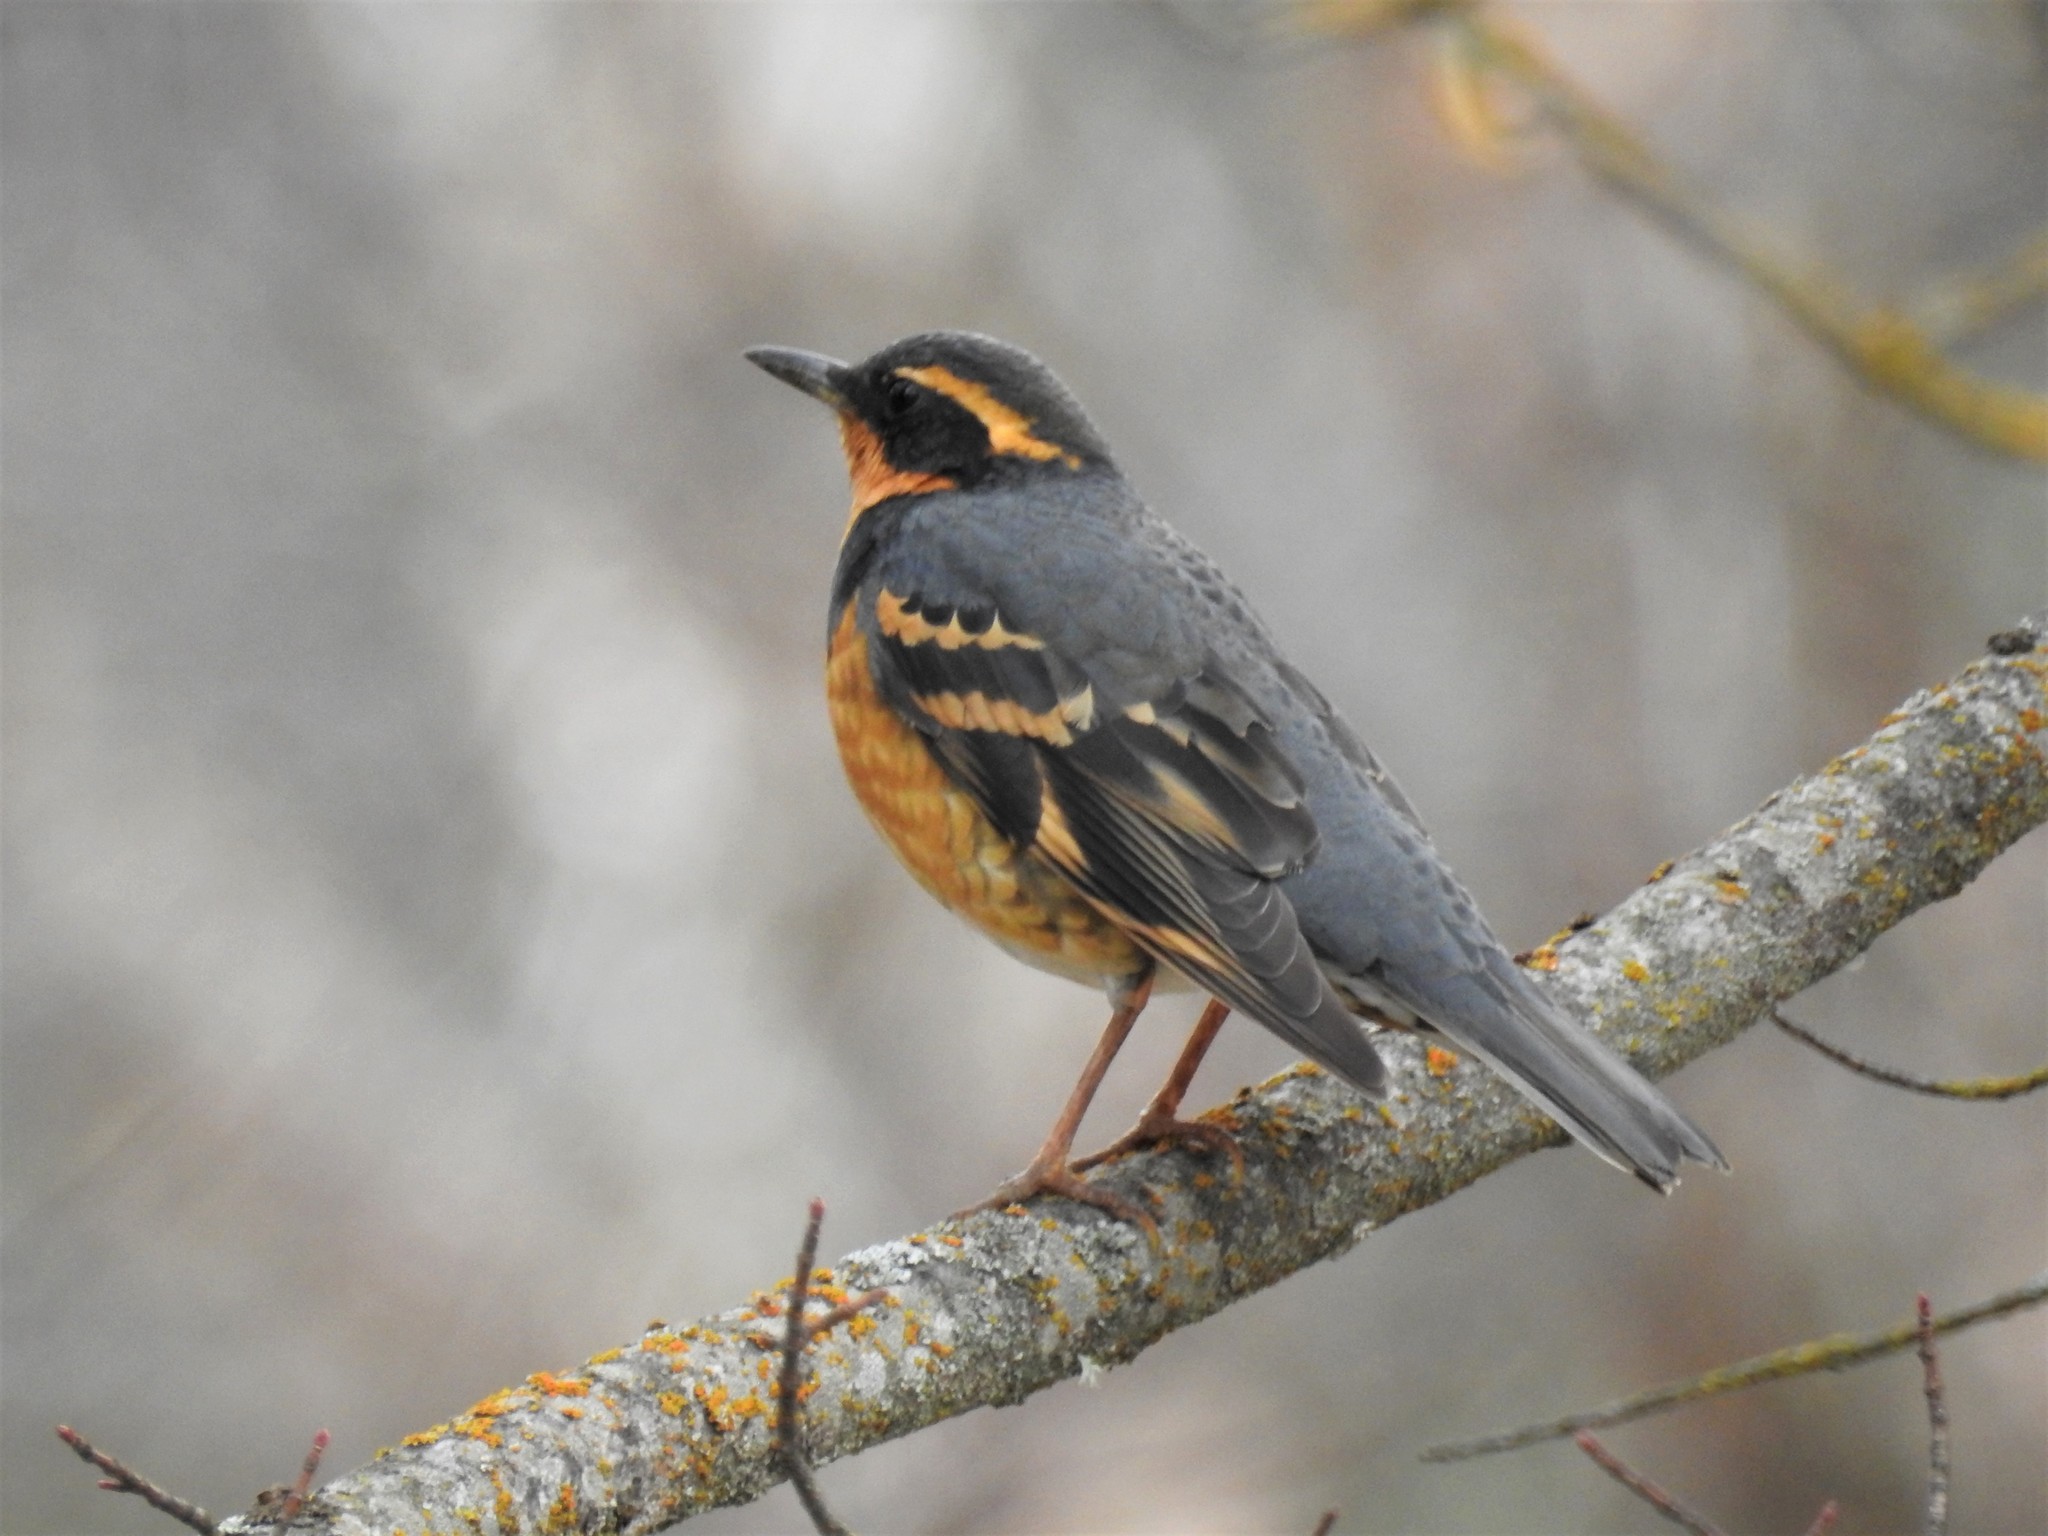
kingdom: Animalia
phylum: Chordata
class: Aves
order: Passeriformes
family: Turdidae
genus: Ixoreus
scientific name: Ixoreus naevius
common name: Varied thrush
